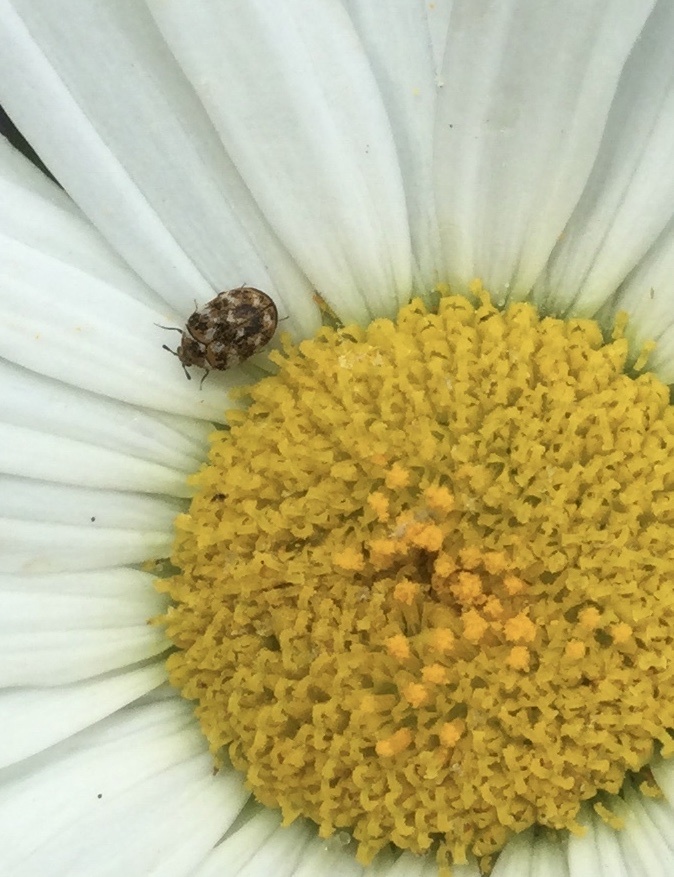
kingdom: Animalia
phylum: Arthropoda
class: Insecta
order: Coleoptera
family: Dermestidae
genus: Anthrenus
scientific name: Anthrenus verbasci
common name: Varied carpet beetle
